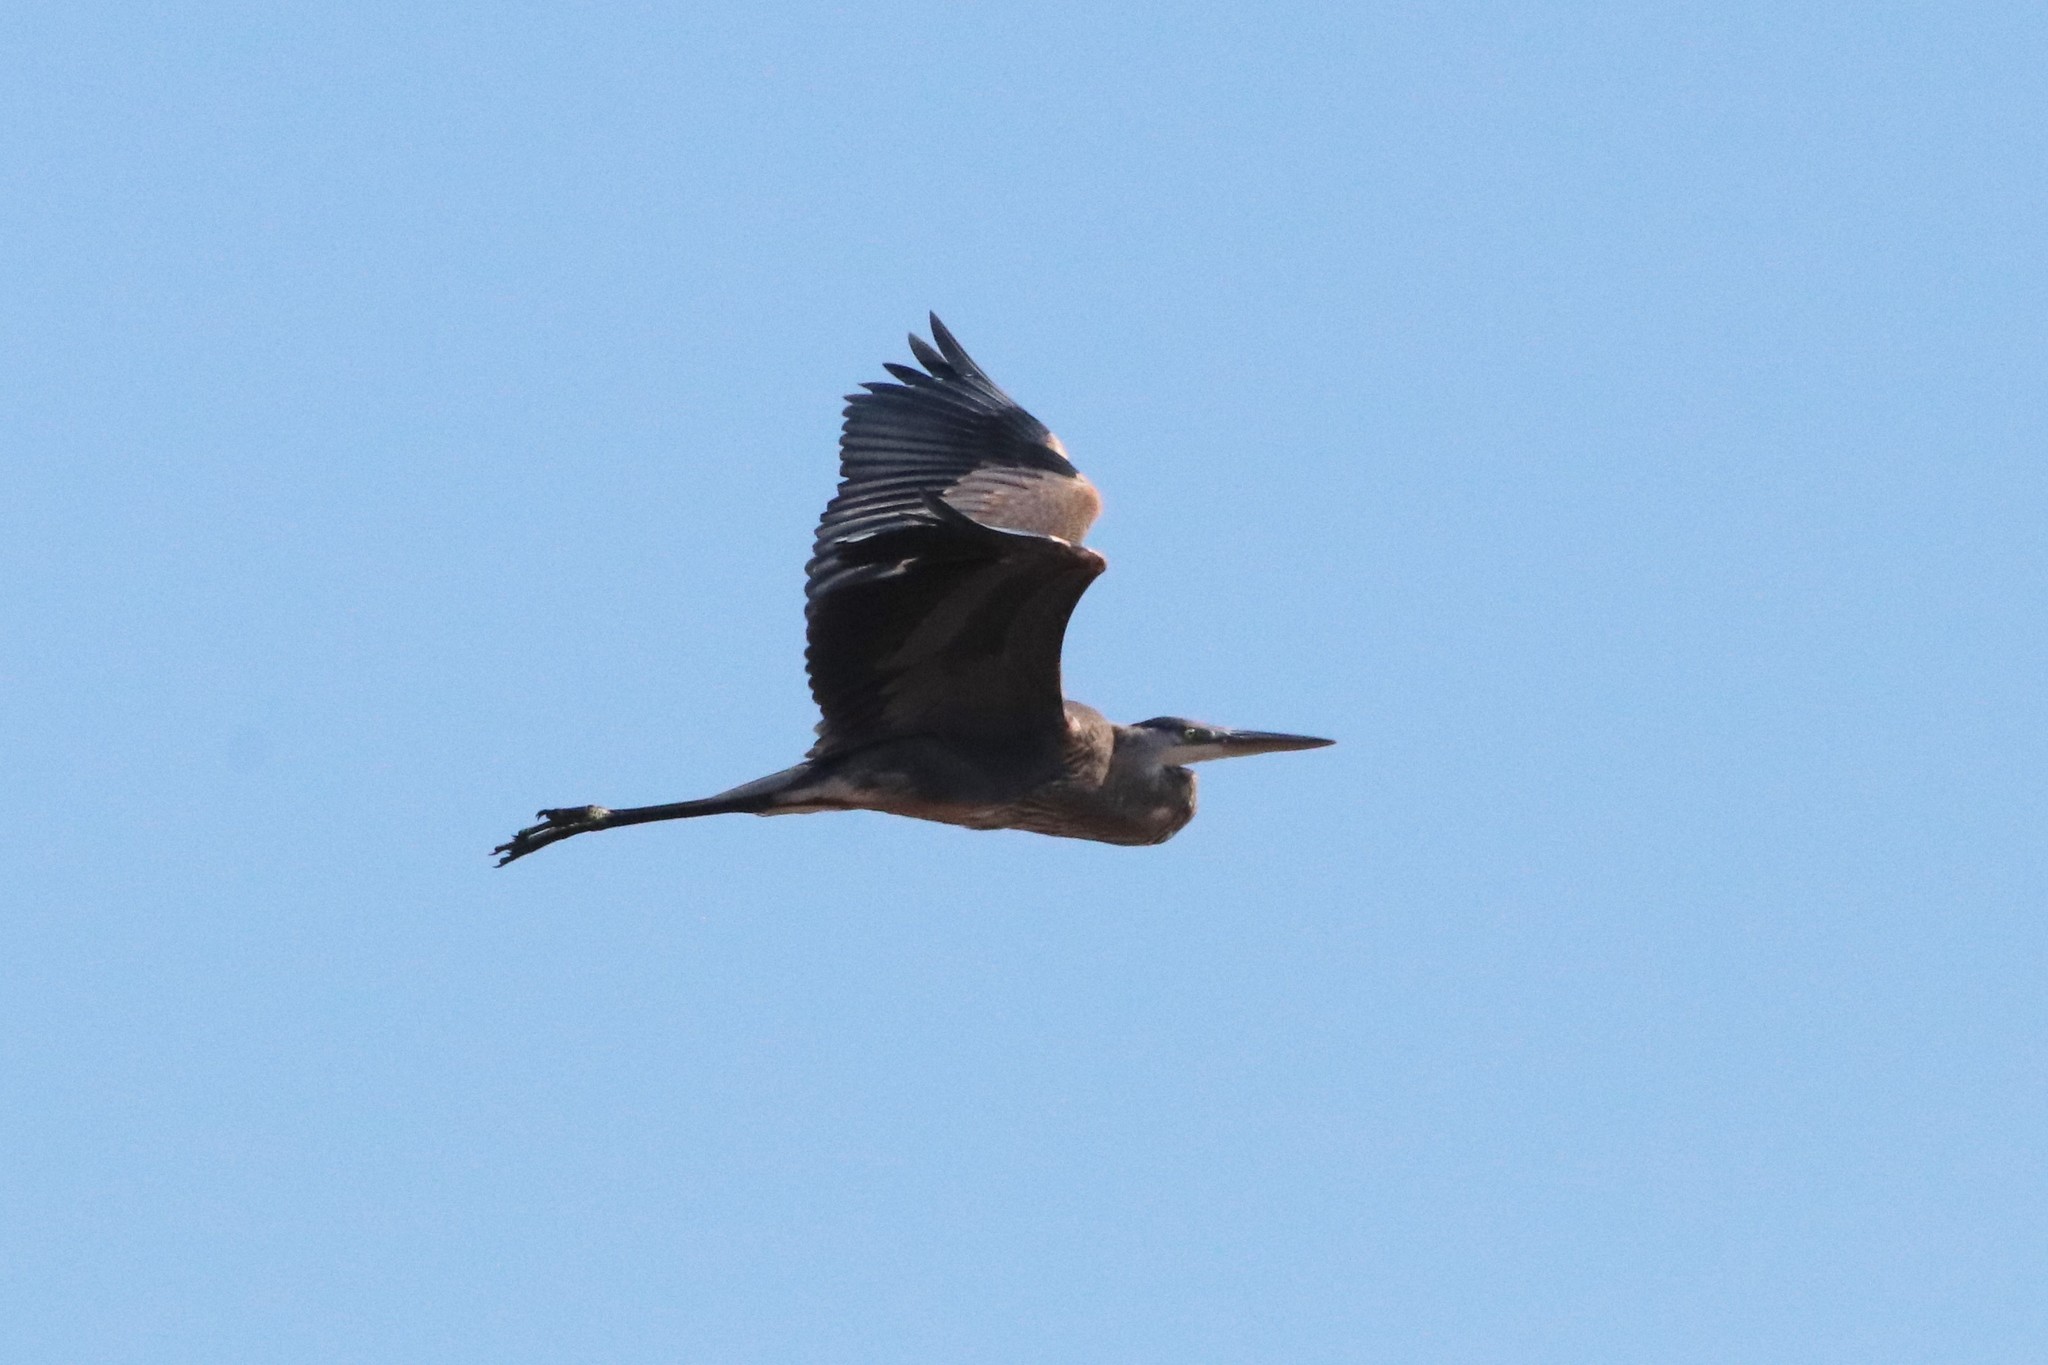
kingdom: Animalia
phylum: Chordata
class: Aves
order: Pelecaniformes
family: Ardeidae
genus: Ardea
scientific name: Ardea herodias
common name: Great blue heron
